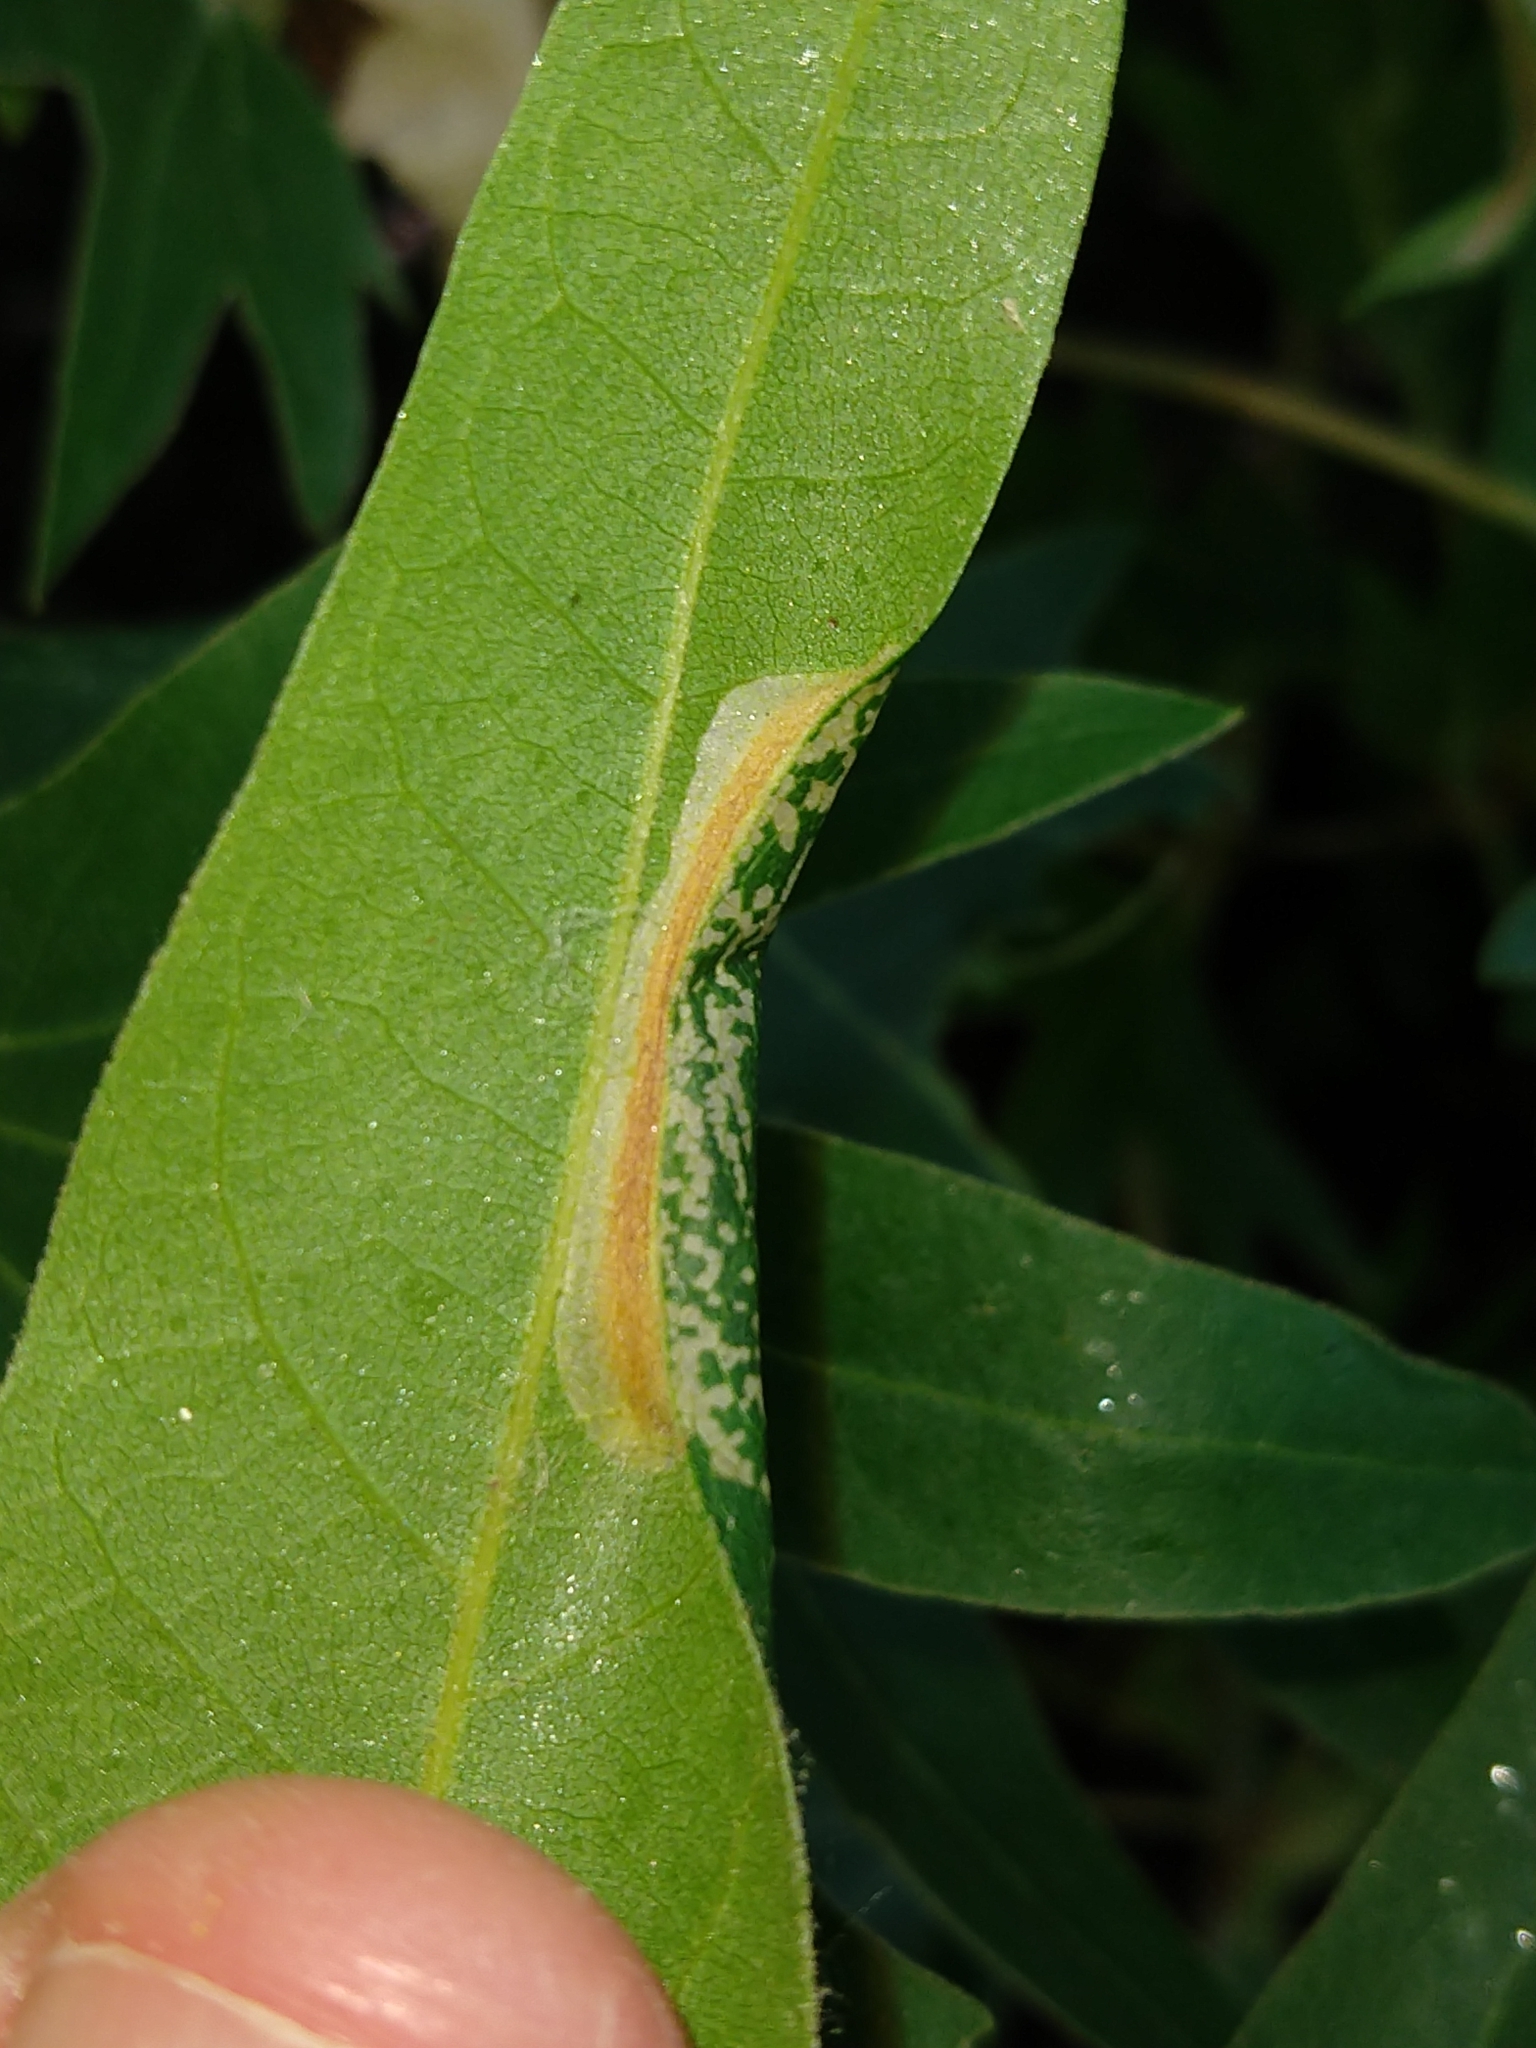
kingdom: Animalia
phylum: Arthropoda
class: Insecta
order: Lepidoptera
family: Gracillariidae
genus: Phyllonorycter
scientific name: Phyllonorycter platani
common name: London midget
